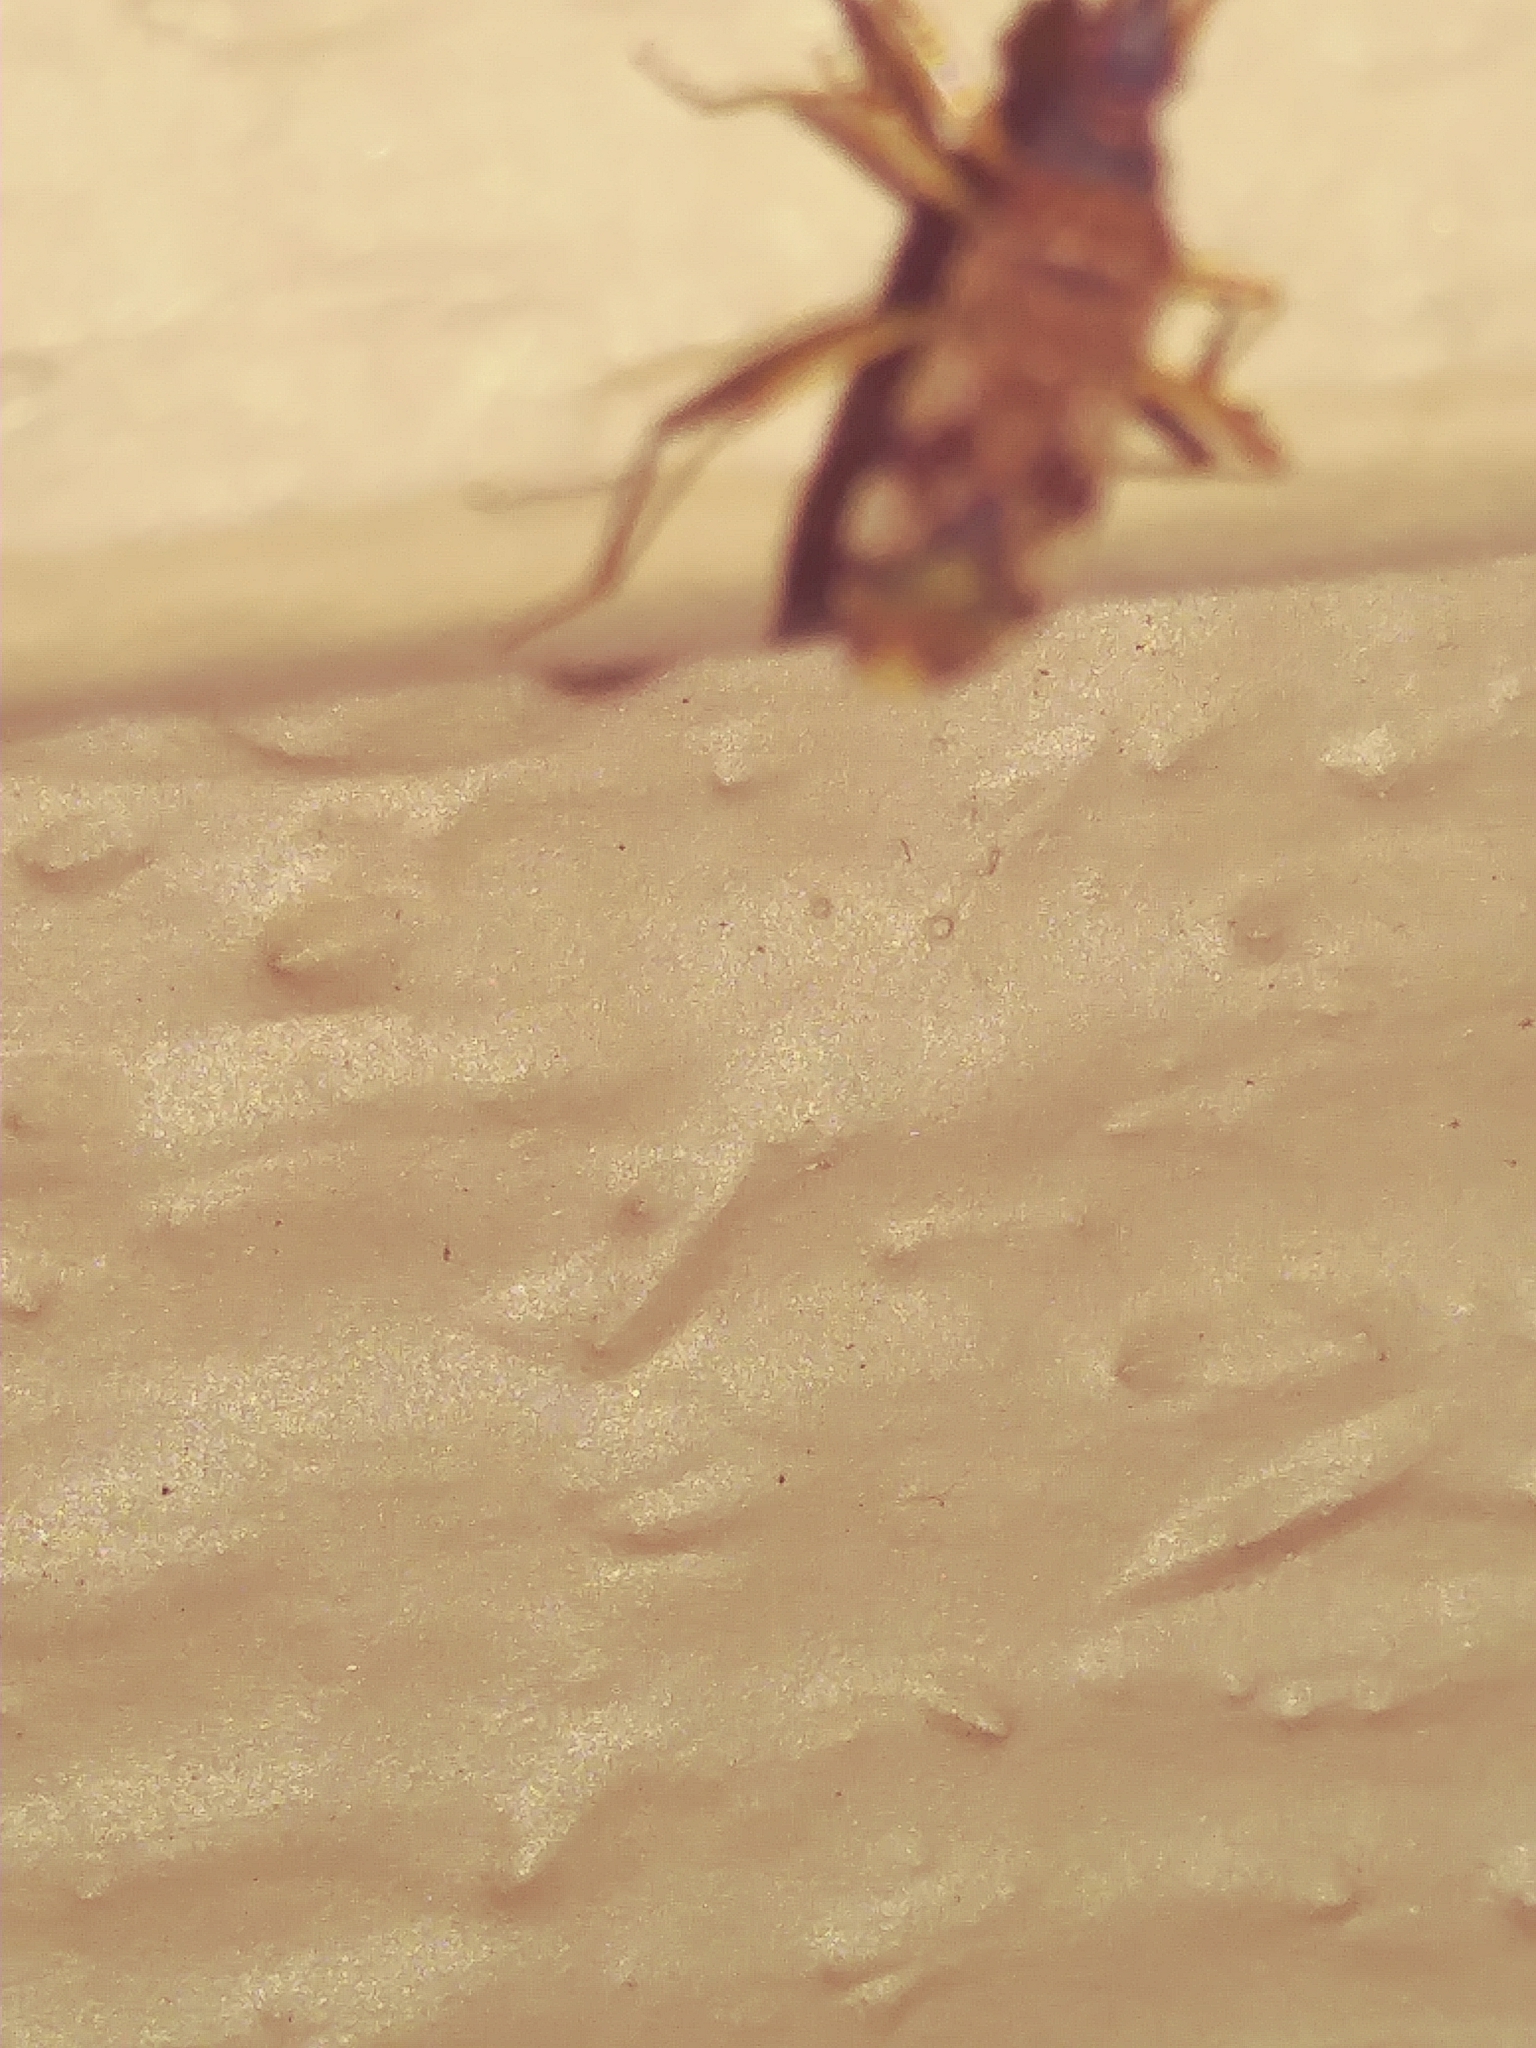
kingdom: Animalia
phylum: Arthropoda
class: Insecta
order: Hemiptera
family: Rhyparochromidae
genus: Ozophora
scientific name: Ozophora picturata
